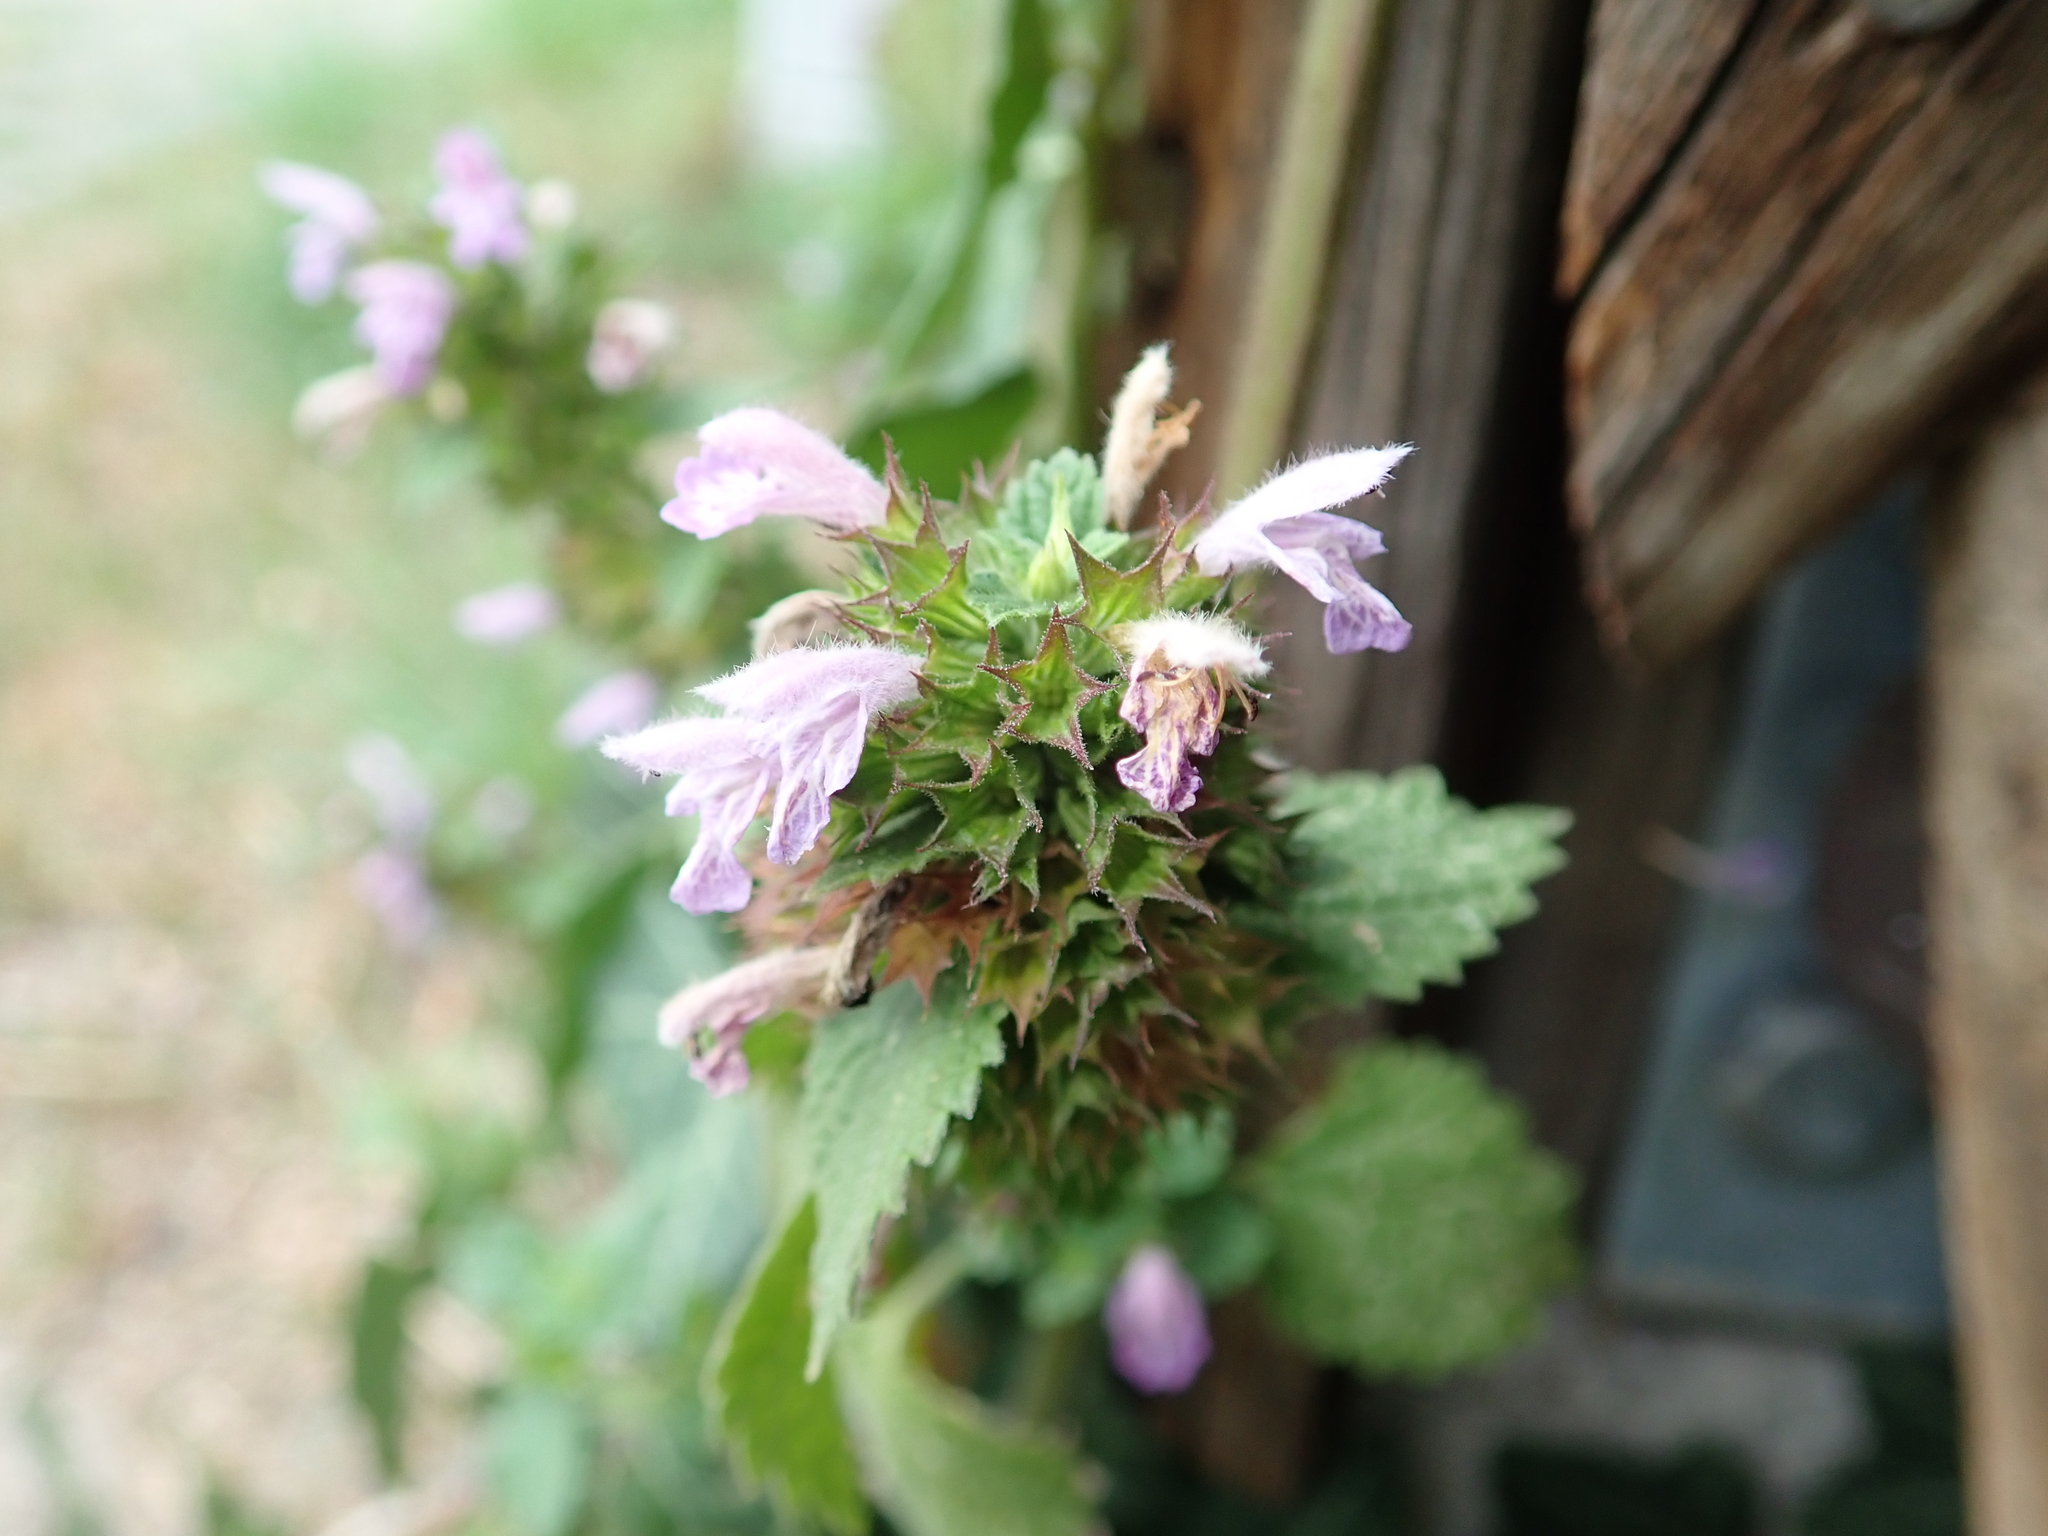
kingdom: Plantae
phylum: Tracheophyta
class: Magnoliopsida
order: Lamiales
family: Lamiaceae
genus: Ballota
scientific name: Ballota nigra
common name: Black horehound
